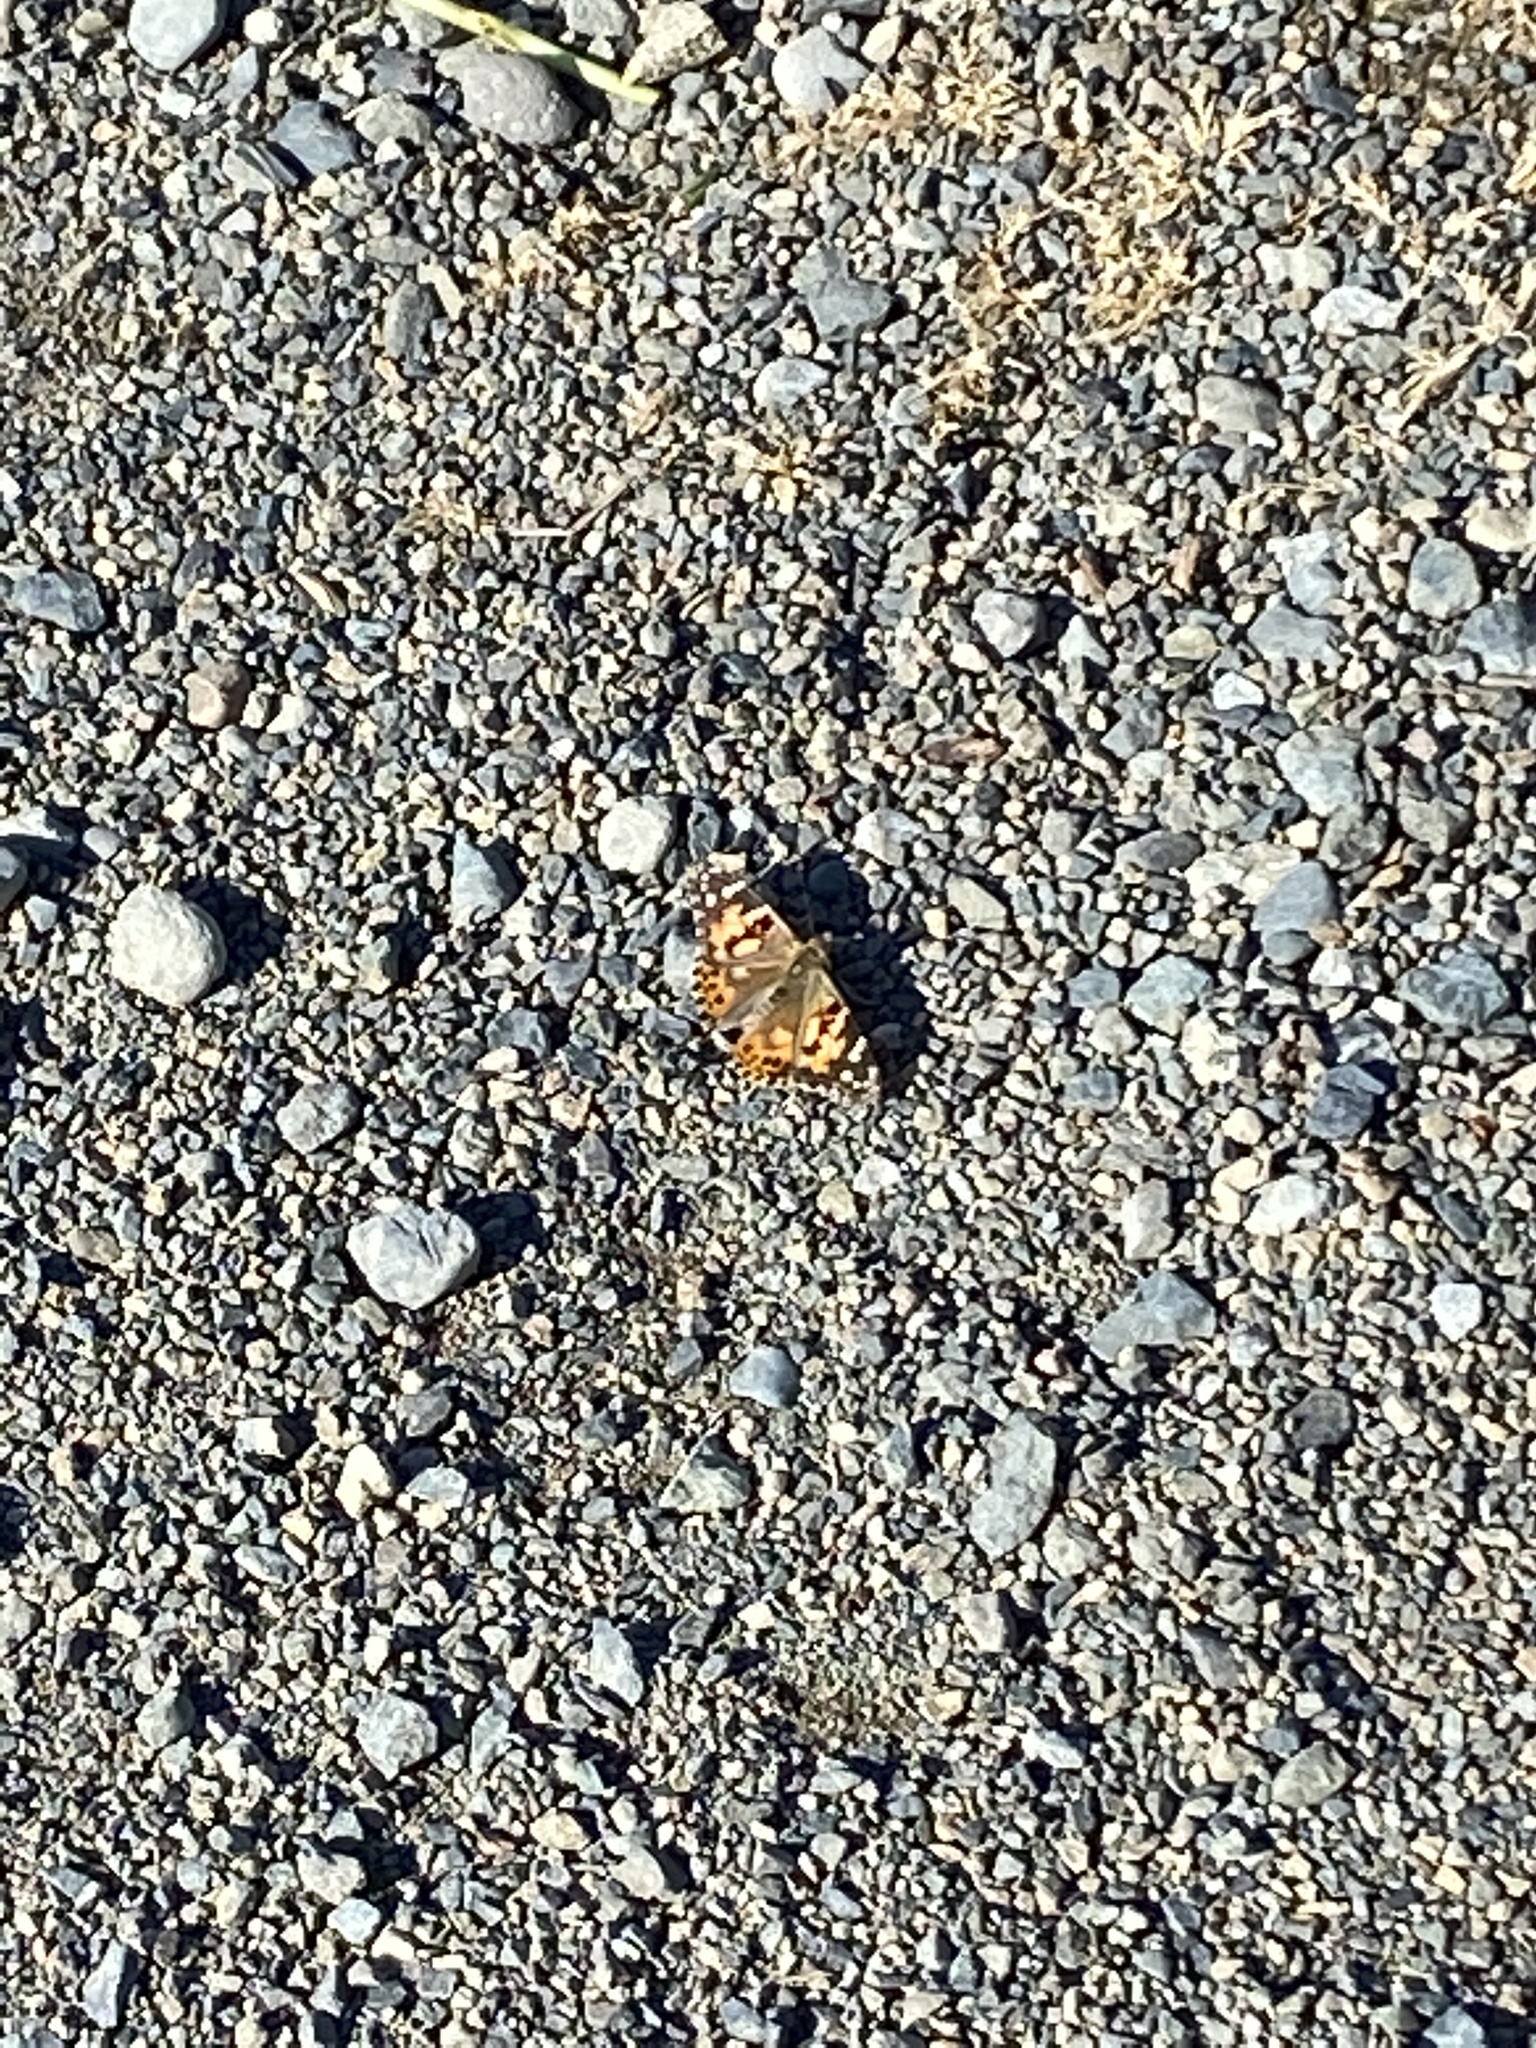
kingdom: Animalia
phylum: Arthropoda
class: Insecta
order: Lepidoptera
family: Nymphalidae
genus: Vanessa
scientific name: Vanessa cardui
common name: Painted lady
